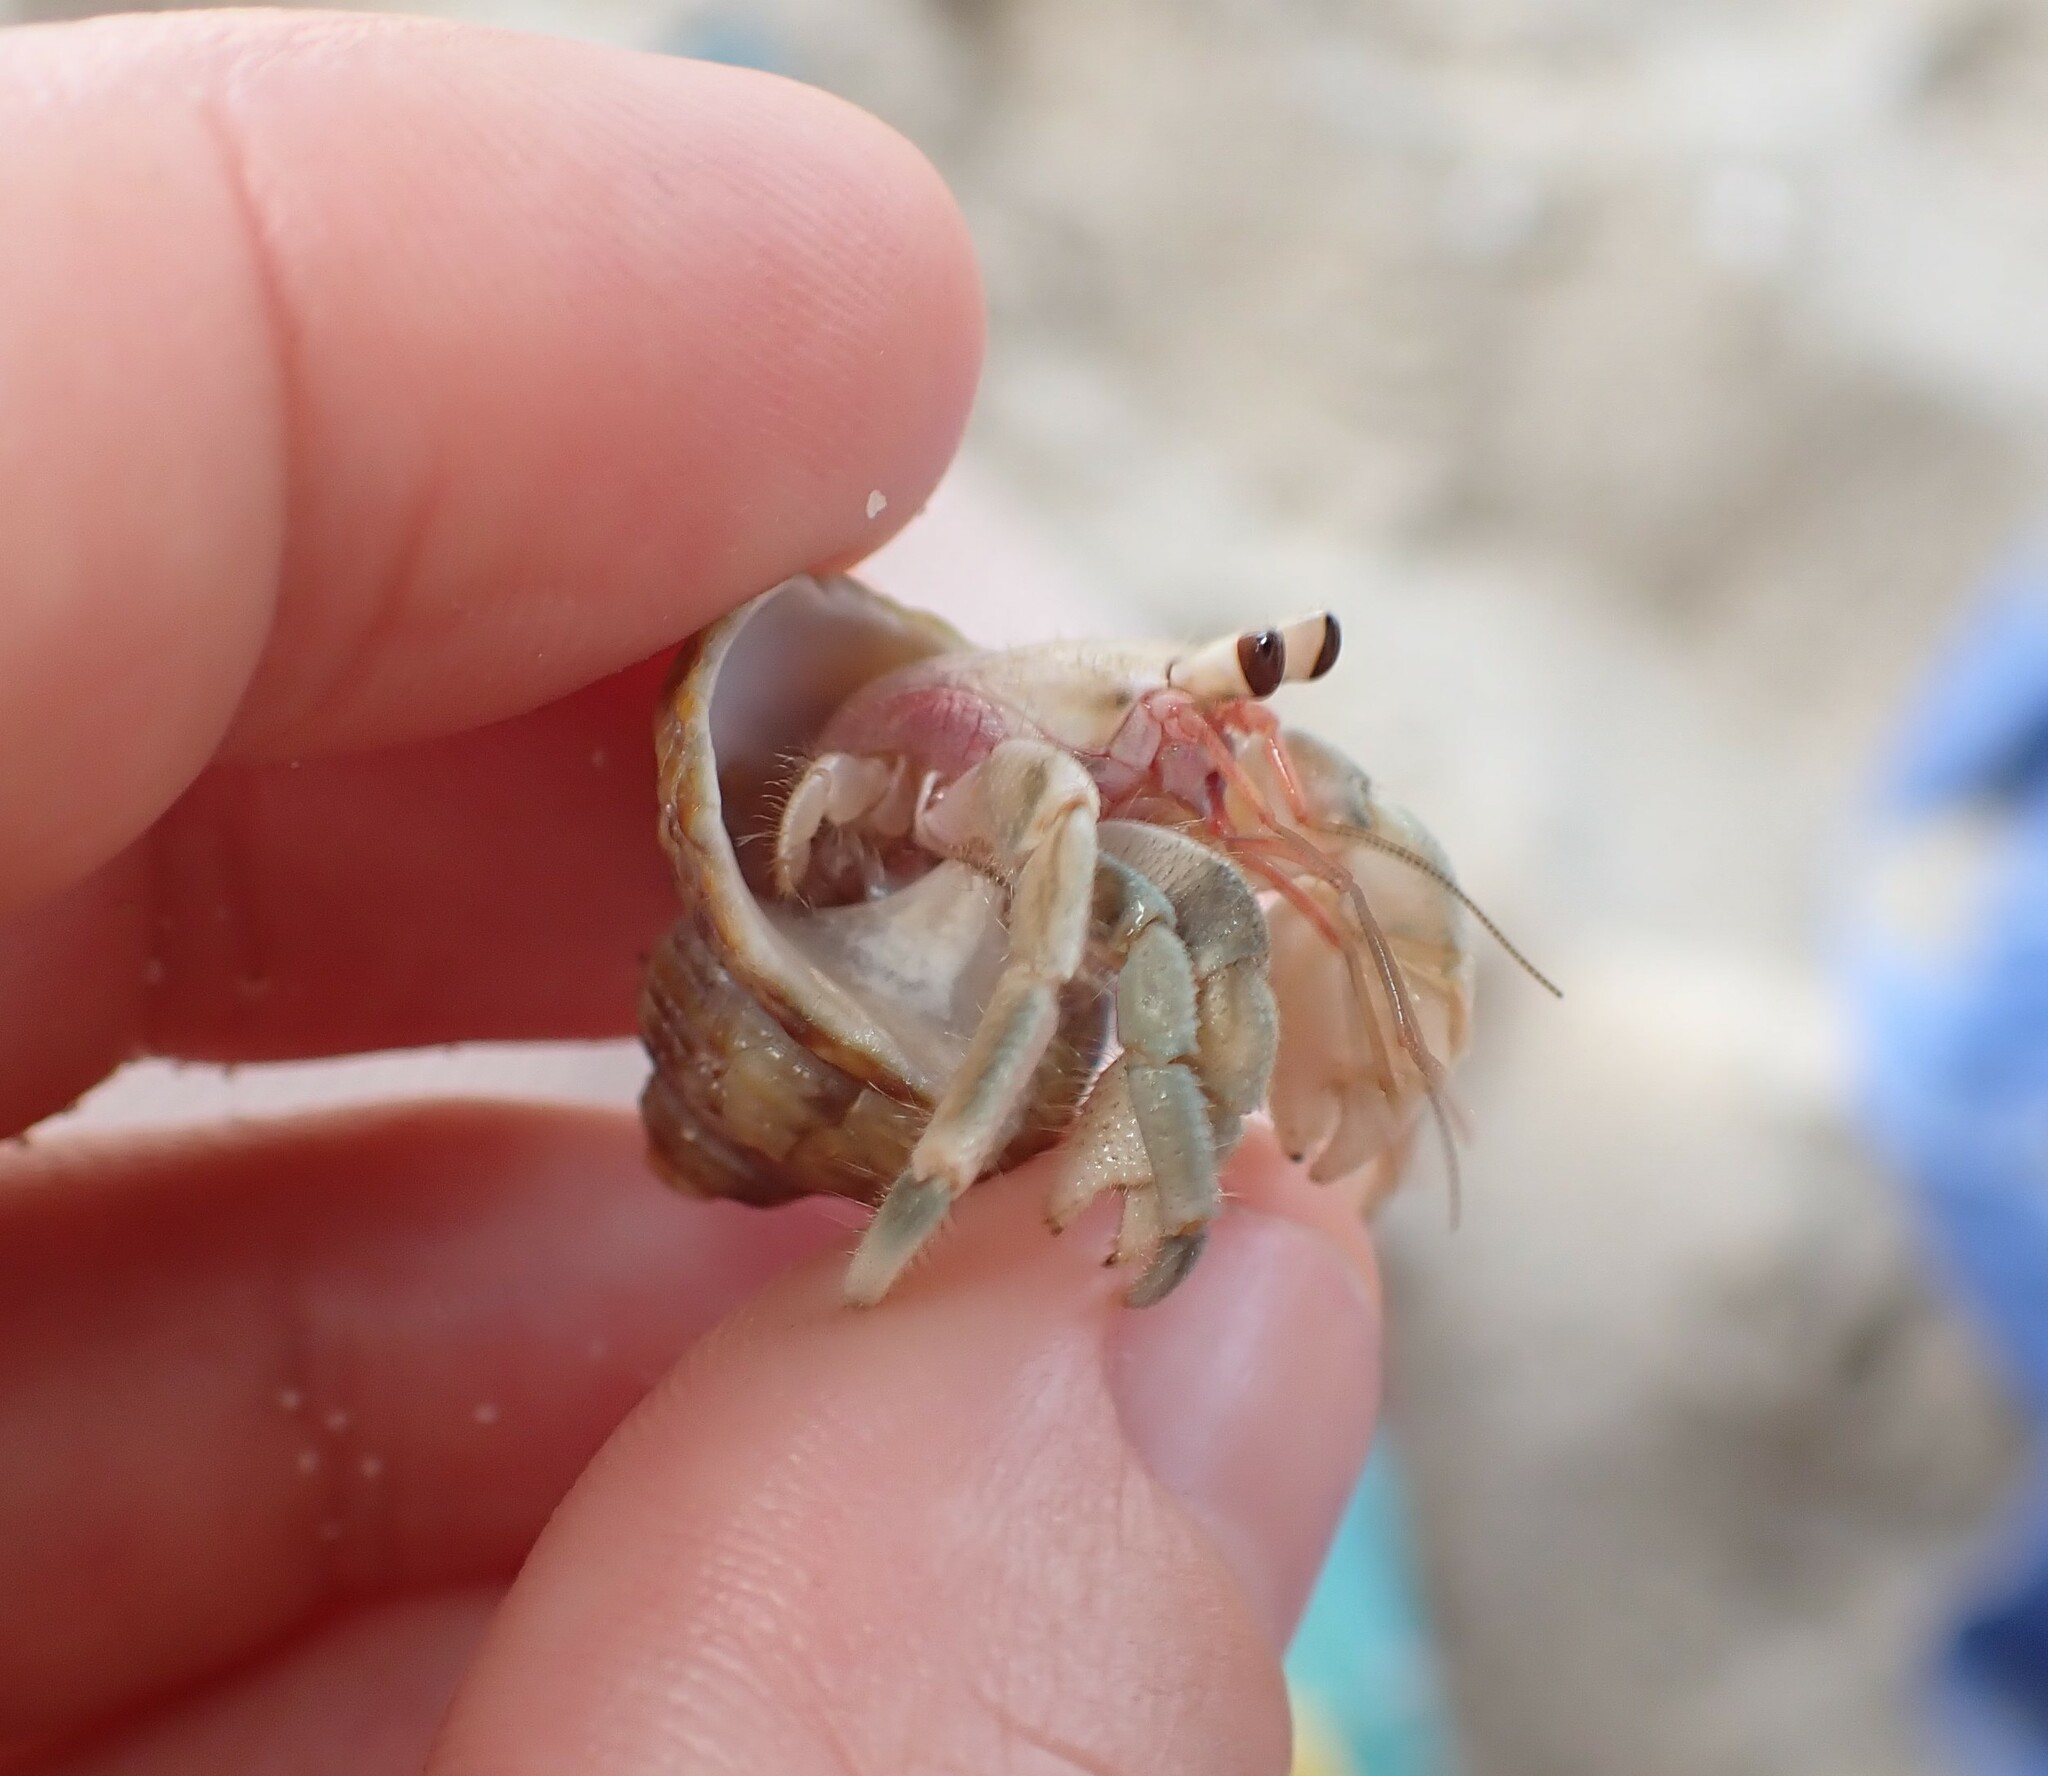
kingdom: Animalia
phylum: Arthropoda
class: Malacostraca
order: Decapoda
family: Coenobitidae
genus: Coenobita
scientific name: Coenobita rugosus
